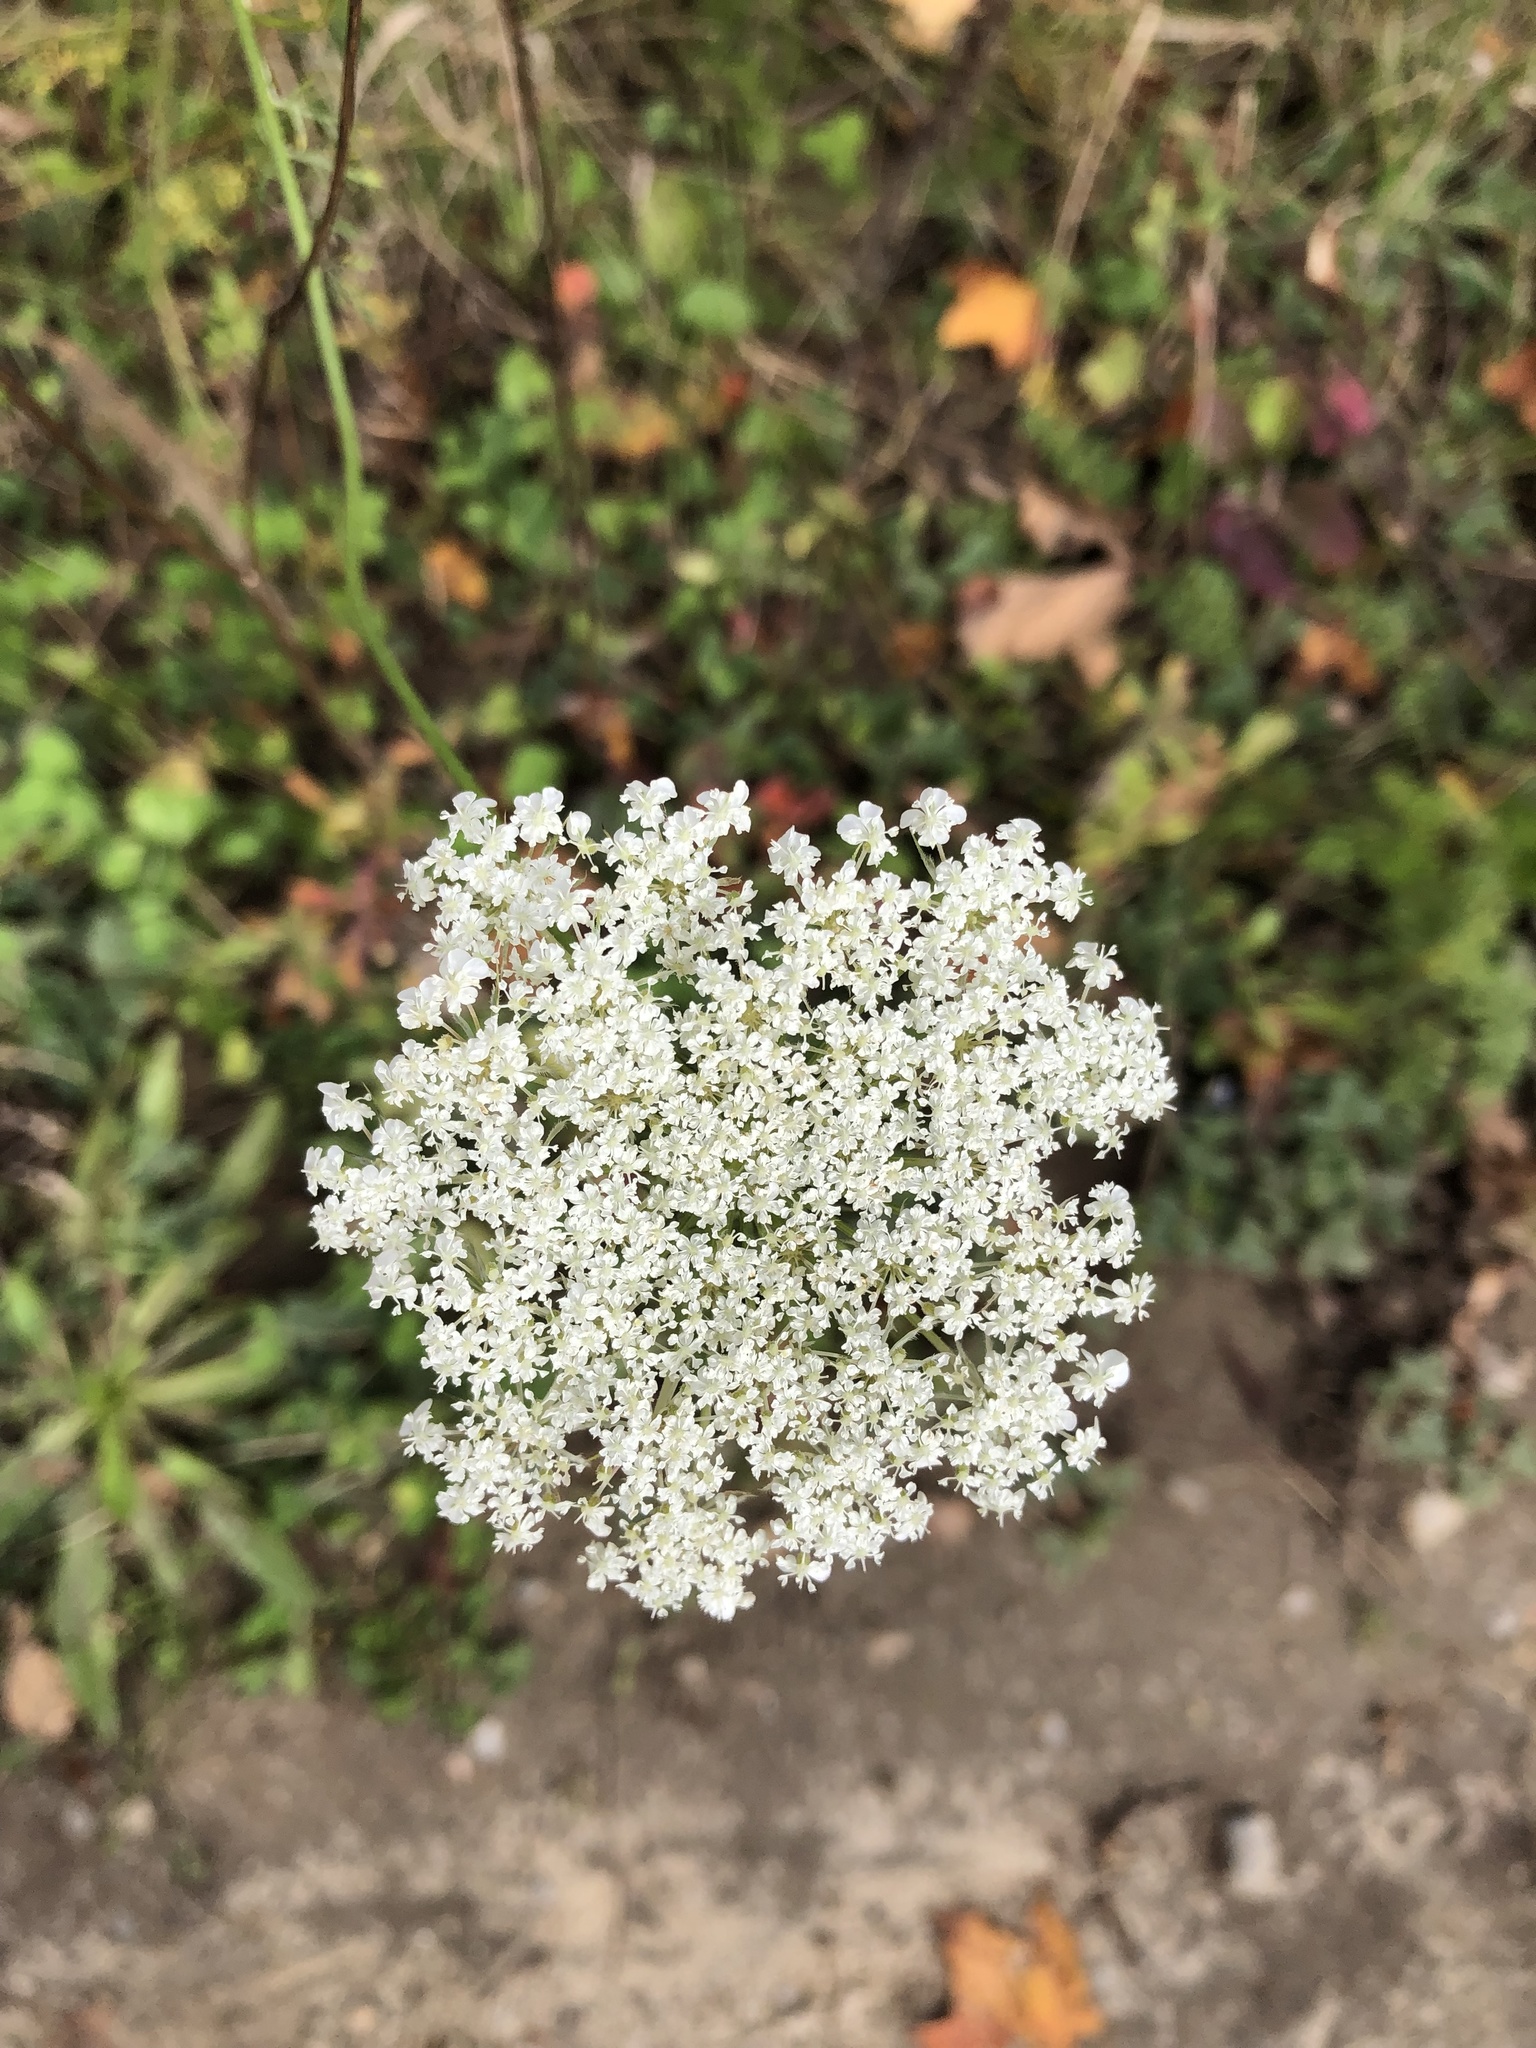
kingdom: Plantae
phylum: Tracheophyta
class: Magnoliopsida
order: Apiales
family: Apiaceae
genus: Daucus
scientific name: Daucus carota
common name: Wild carrot
